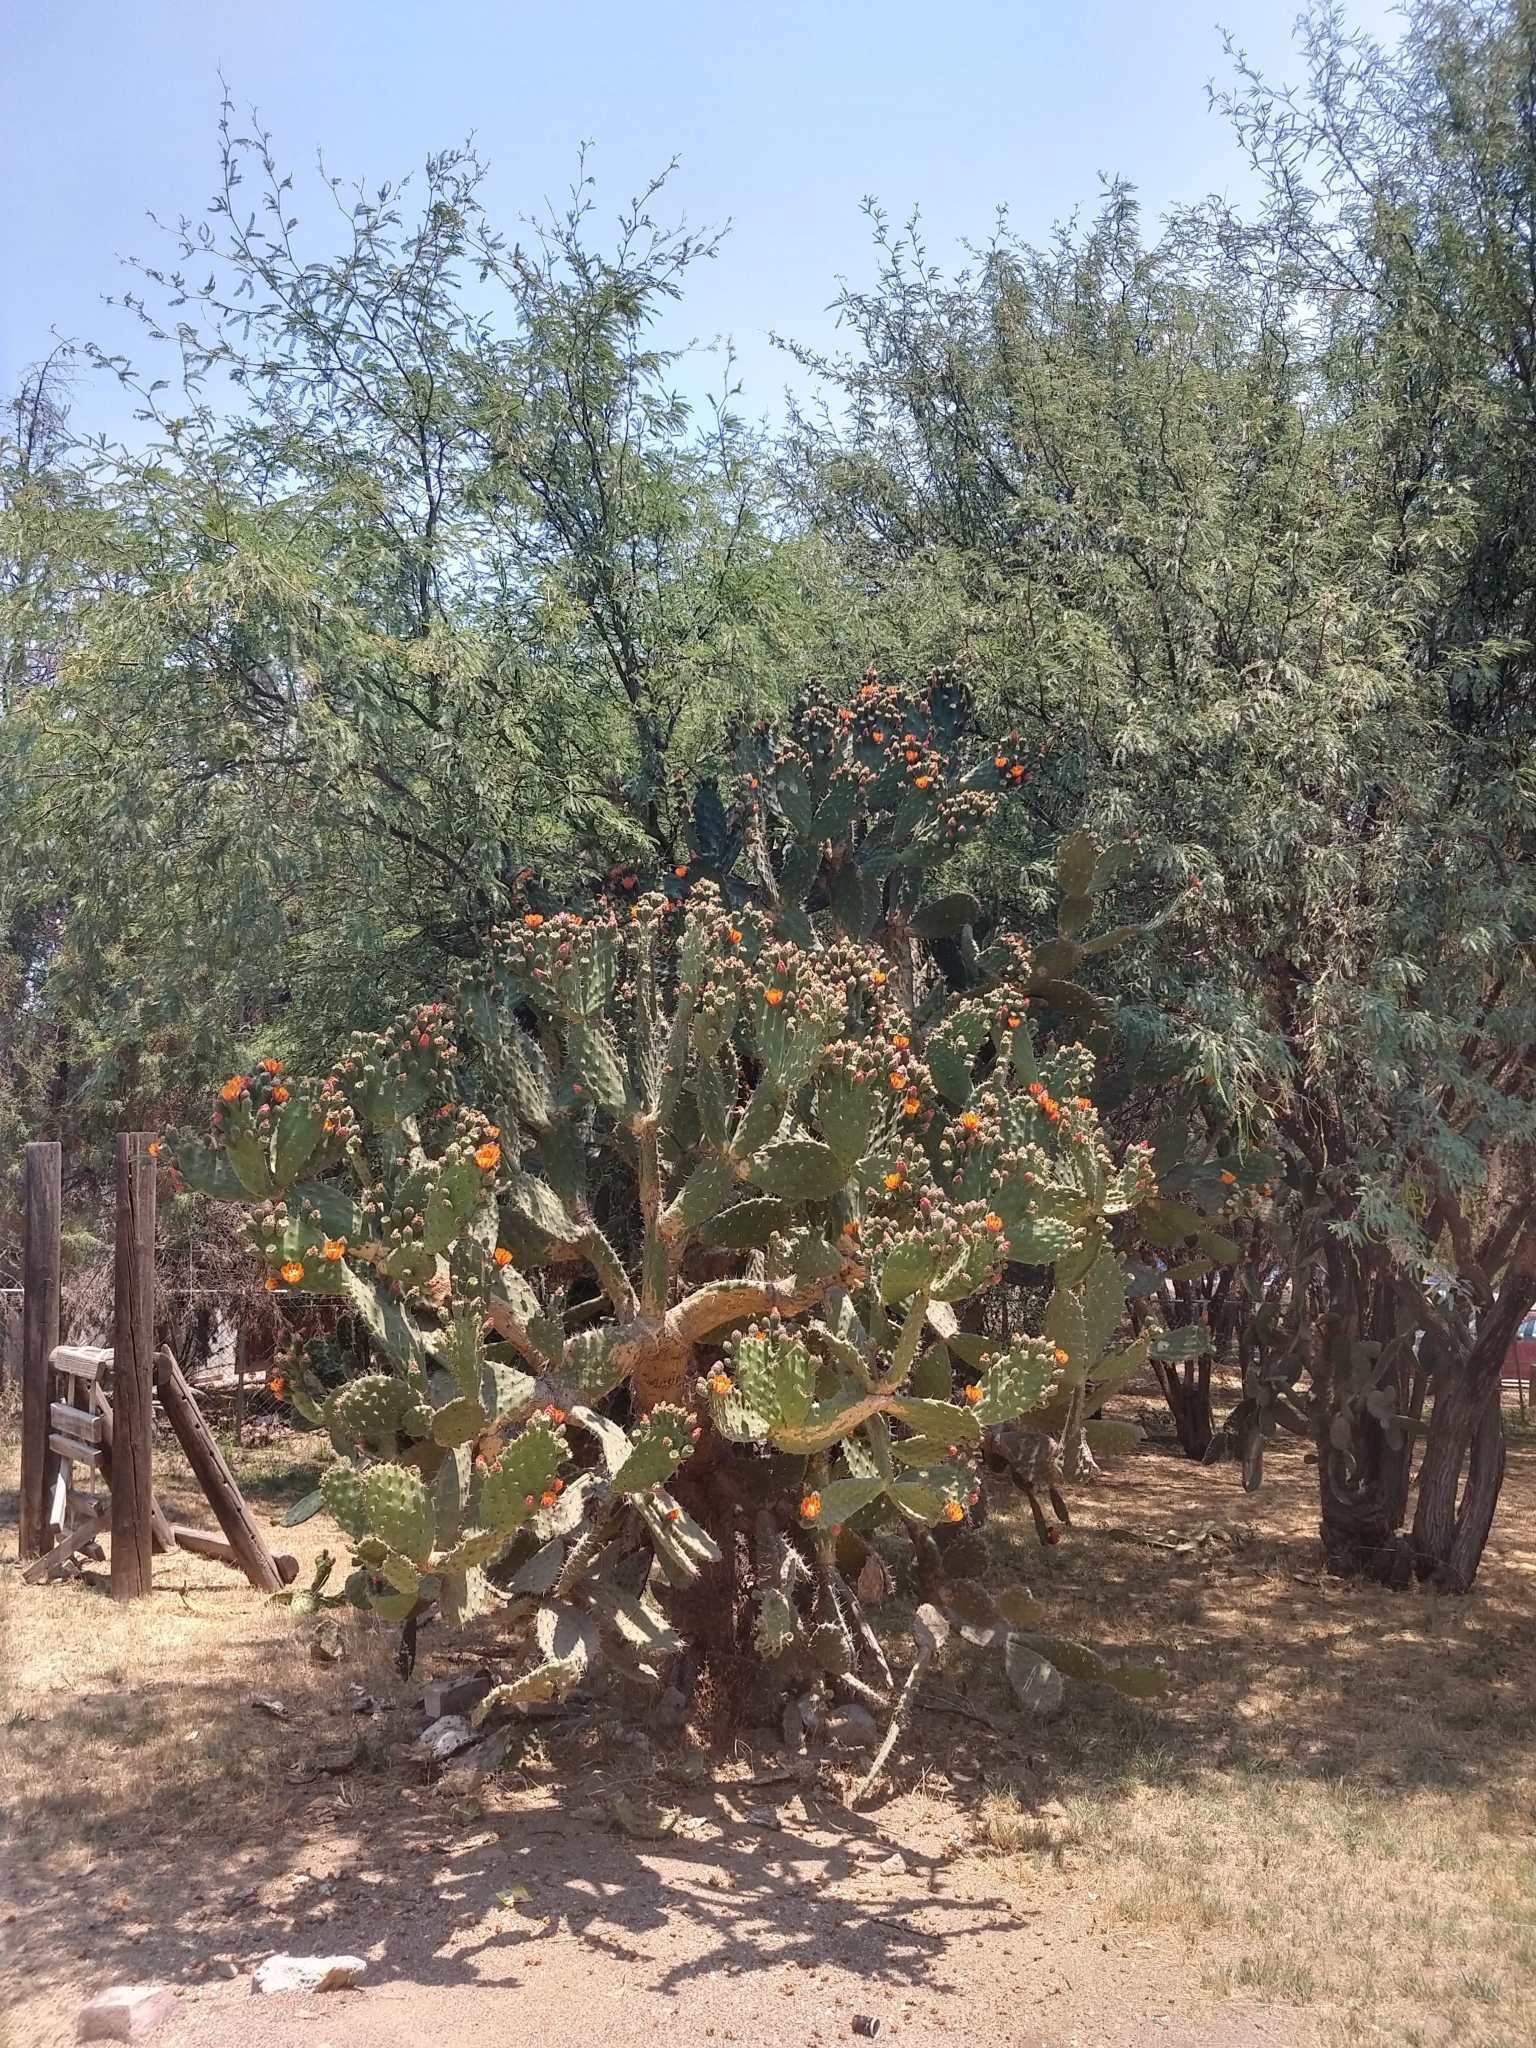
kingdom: Plantae
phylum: Tracheophyta
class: Magnoliopsida
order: Caryophyllales
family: Cactaceae
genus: Opuntia
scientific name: Opuntia tomentosa
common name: Woollyjoint pricklypear
